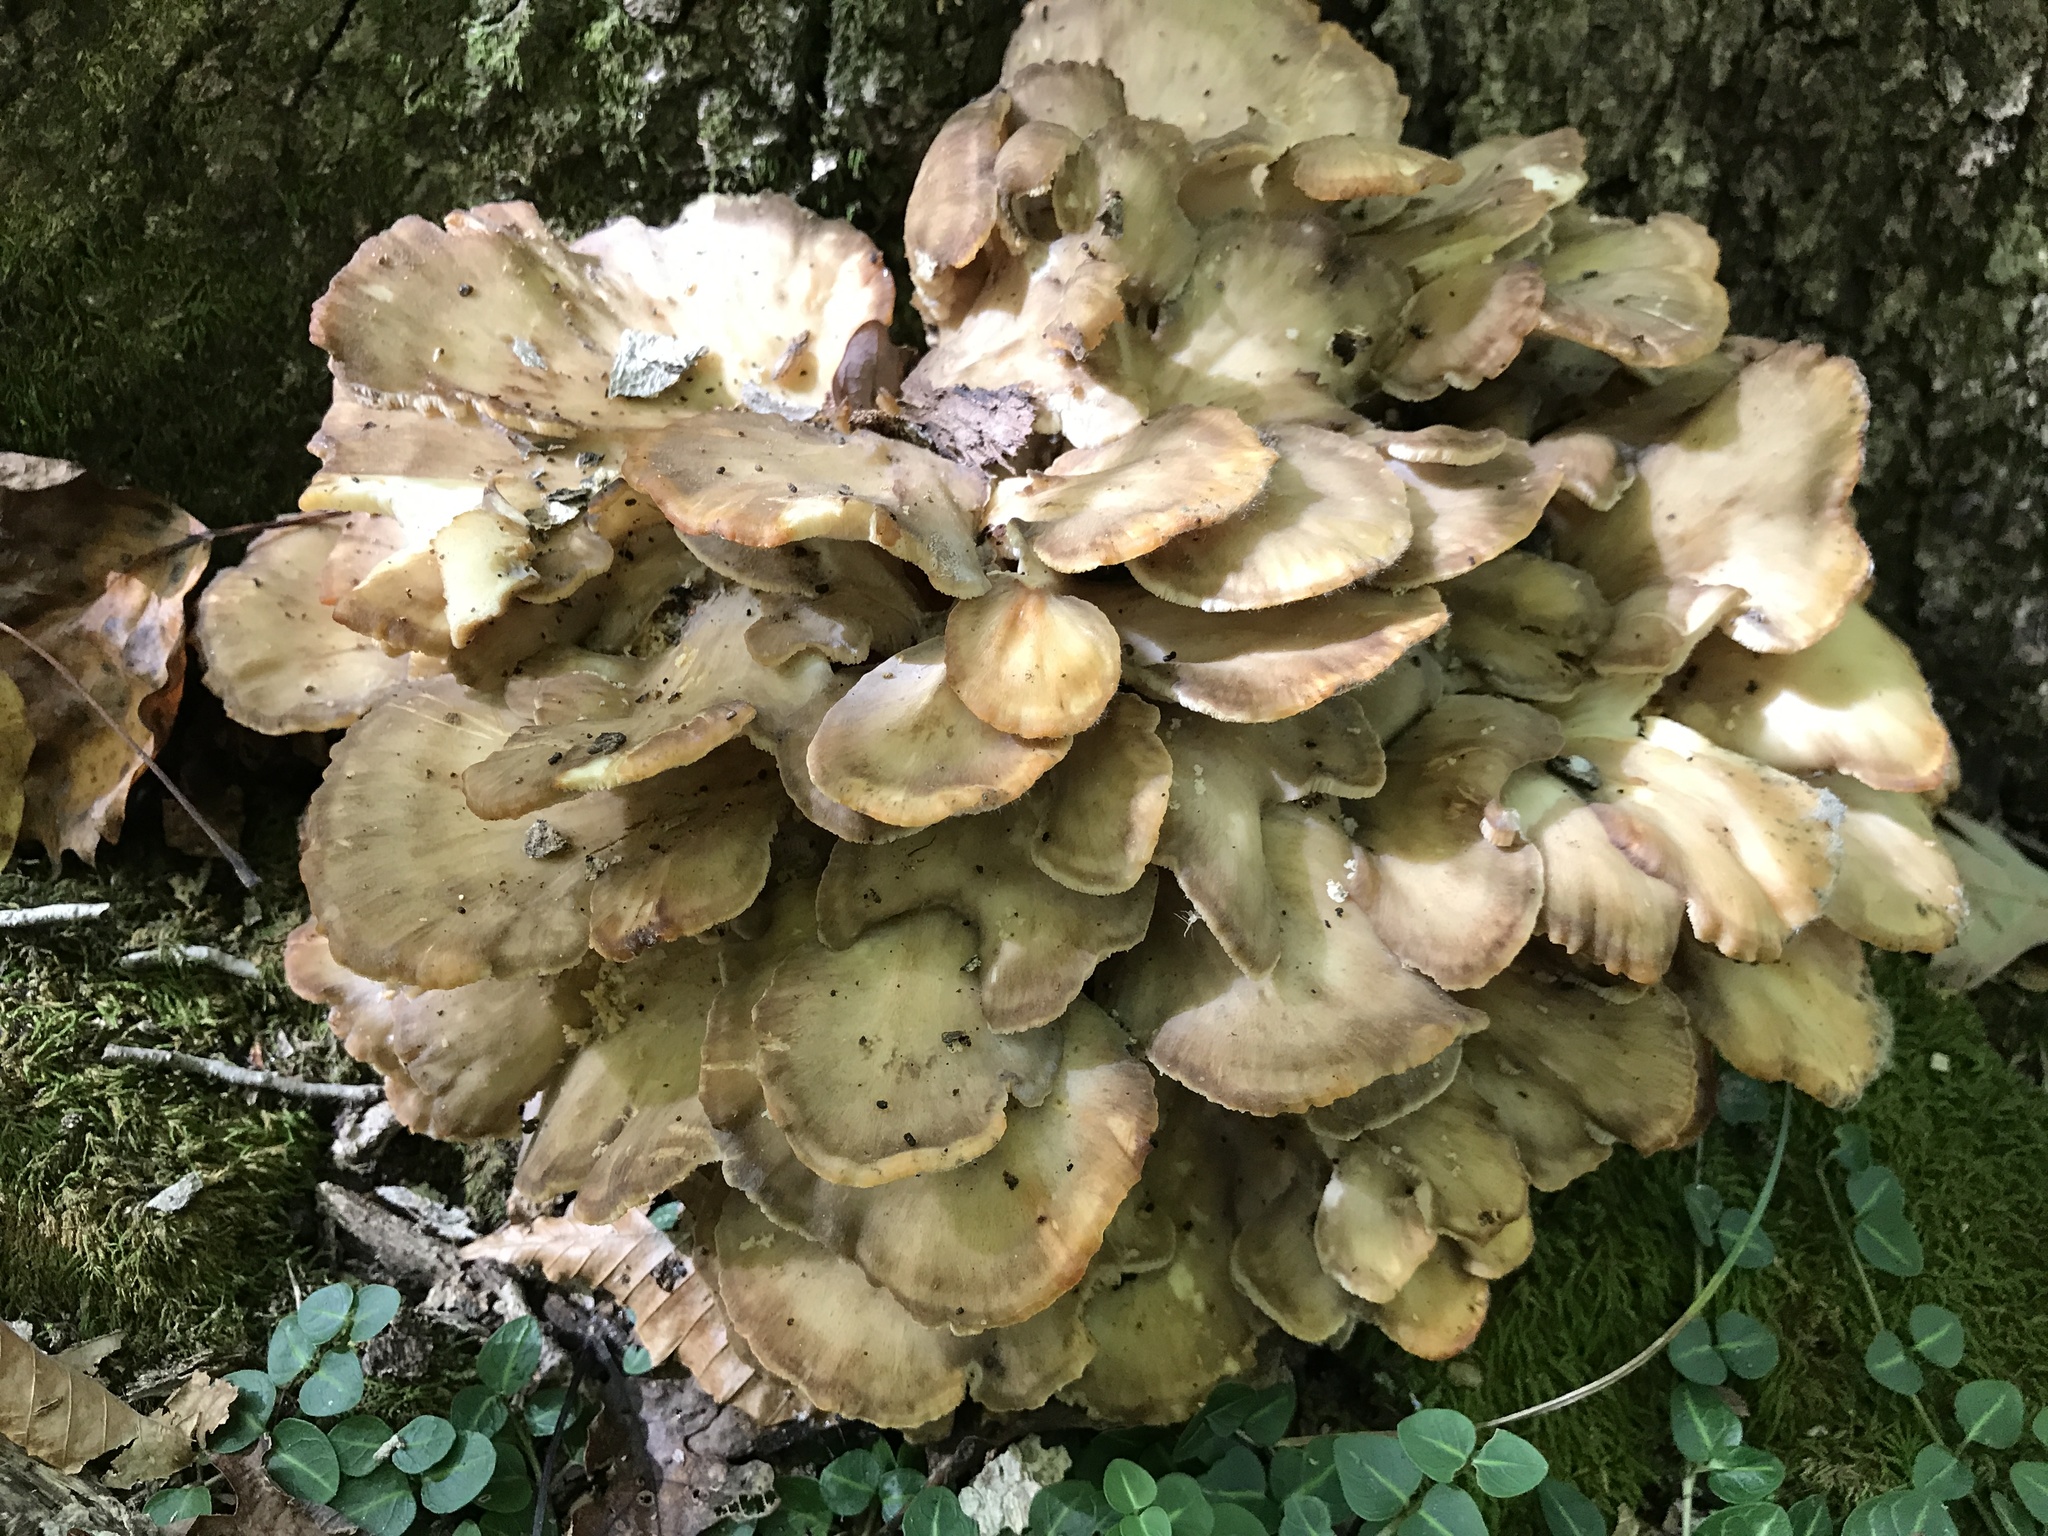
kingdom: Fungi
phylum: Basidiomycota
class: Agaricomycetes
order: Polyporales
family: Grifolaceae
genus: Grifola
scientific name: Grifola frondosa
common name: Hen of the woods
